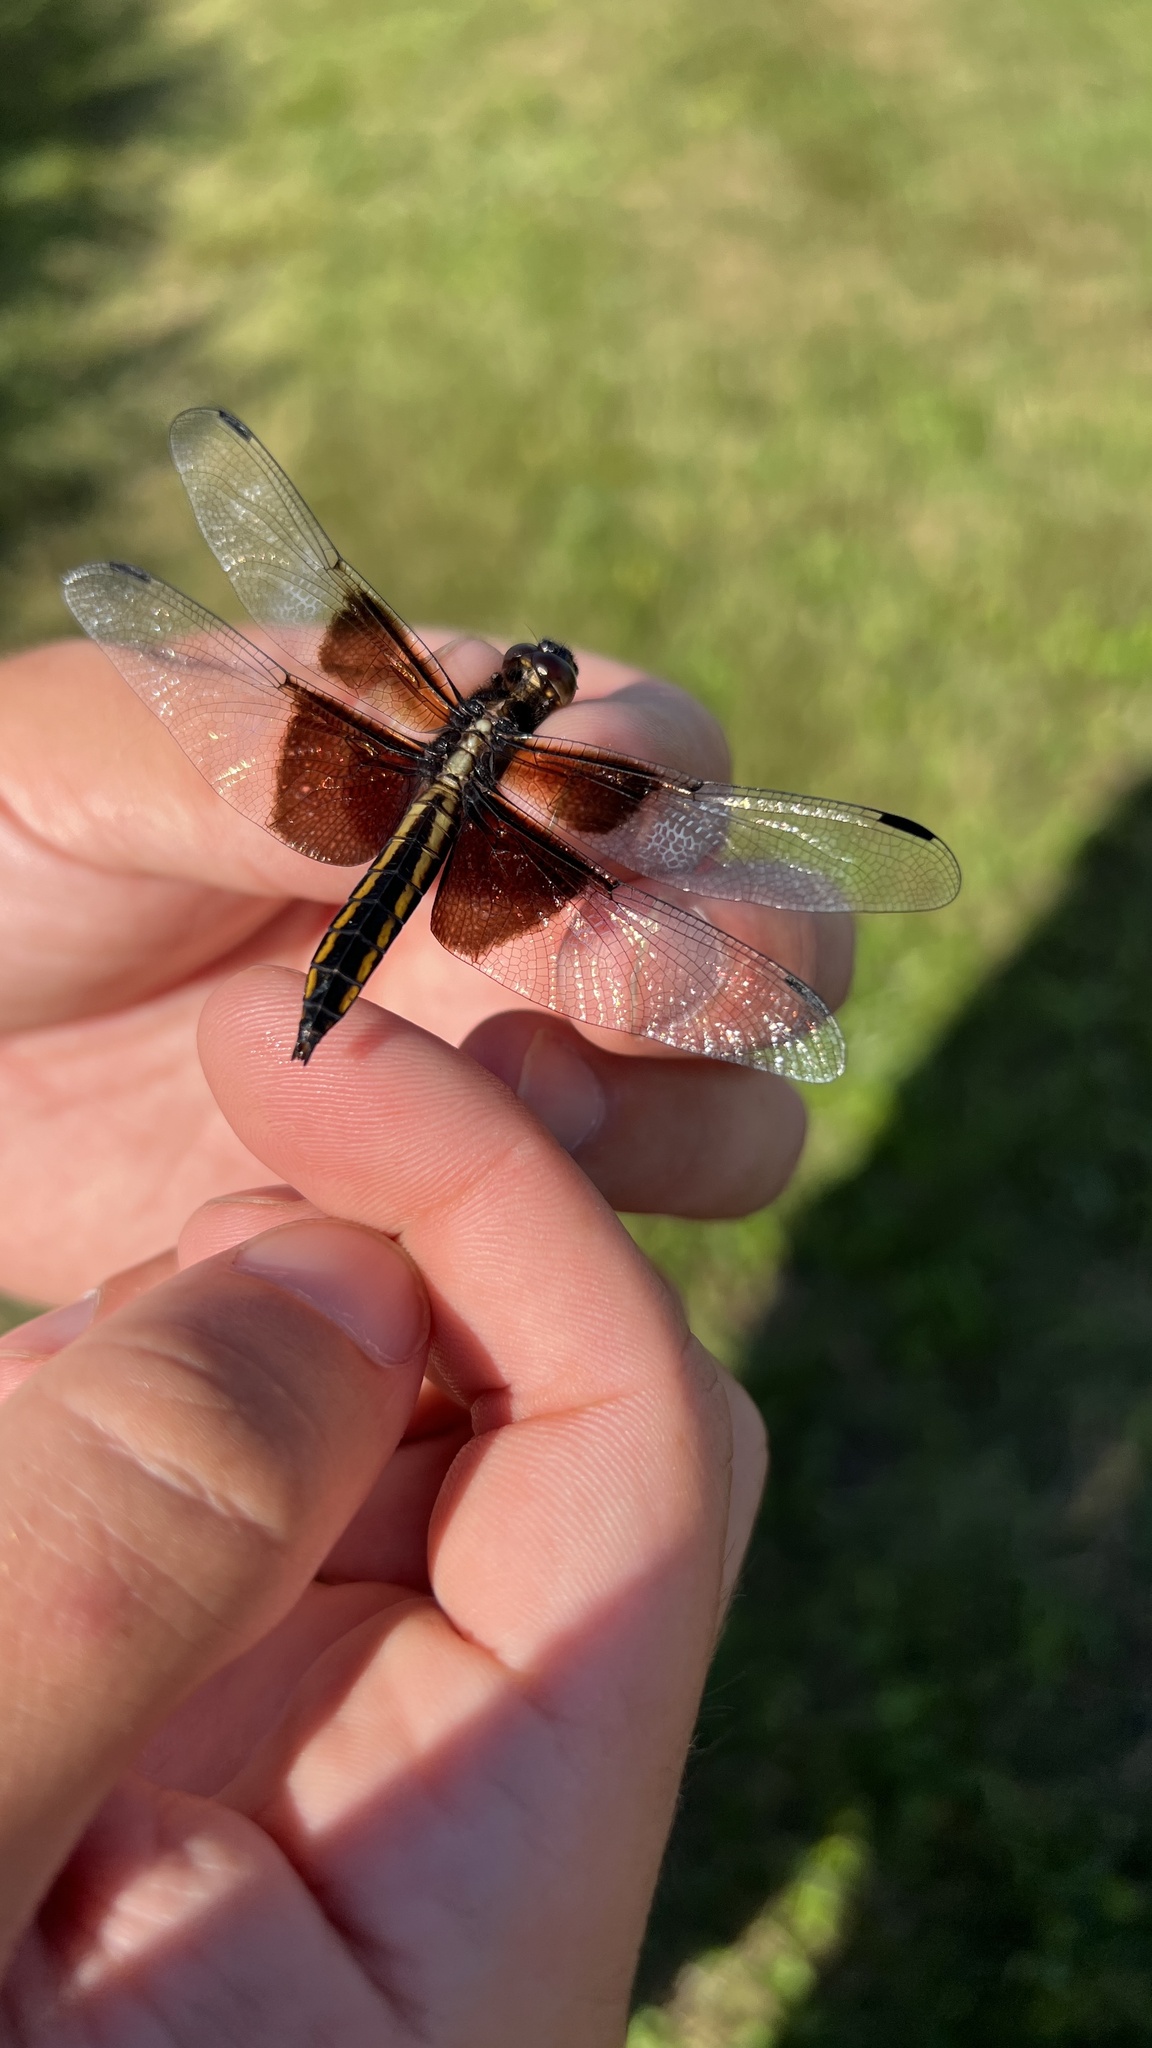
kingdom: Animalia
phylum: Arthropoda
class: Insecta
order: Odonata
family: Libellulidae
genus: Libellula
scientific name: Libellula luctuosa
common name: Widow skimmer
